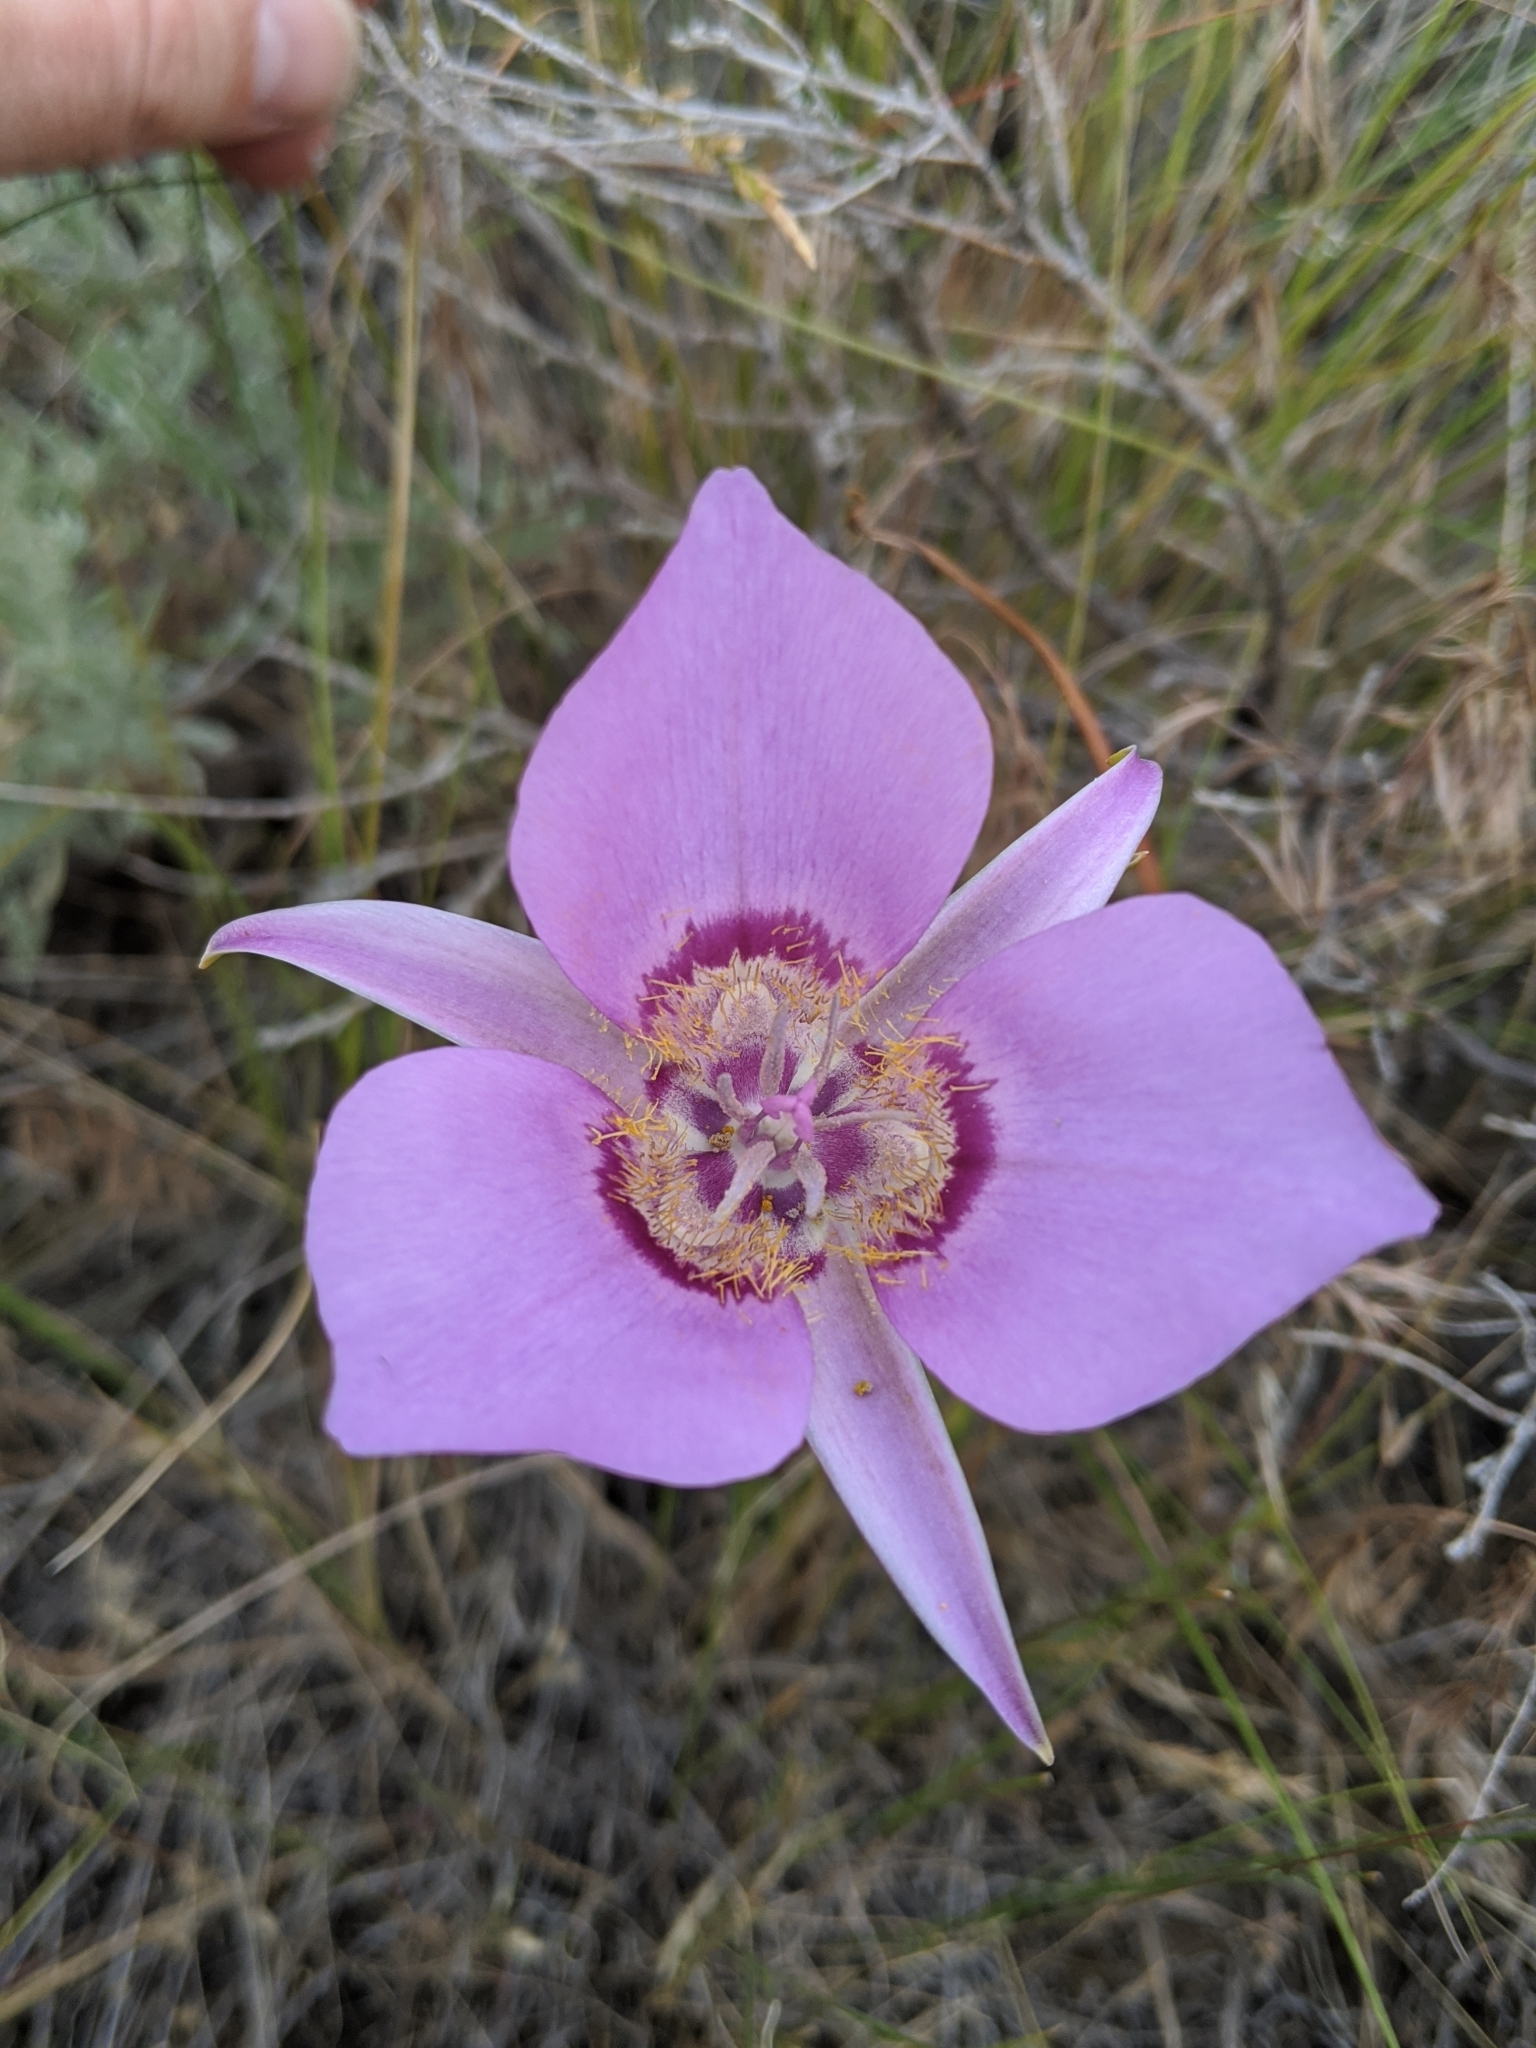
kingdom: Plantae
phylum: Tracheophyta
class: Liliopsida
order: Liliales
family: Liliaceae
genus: Calochortus
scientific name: Calochortus macrocarpus
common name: Green-band mariposa lily
